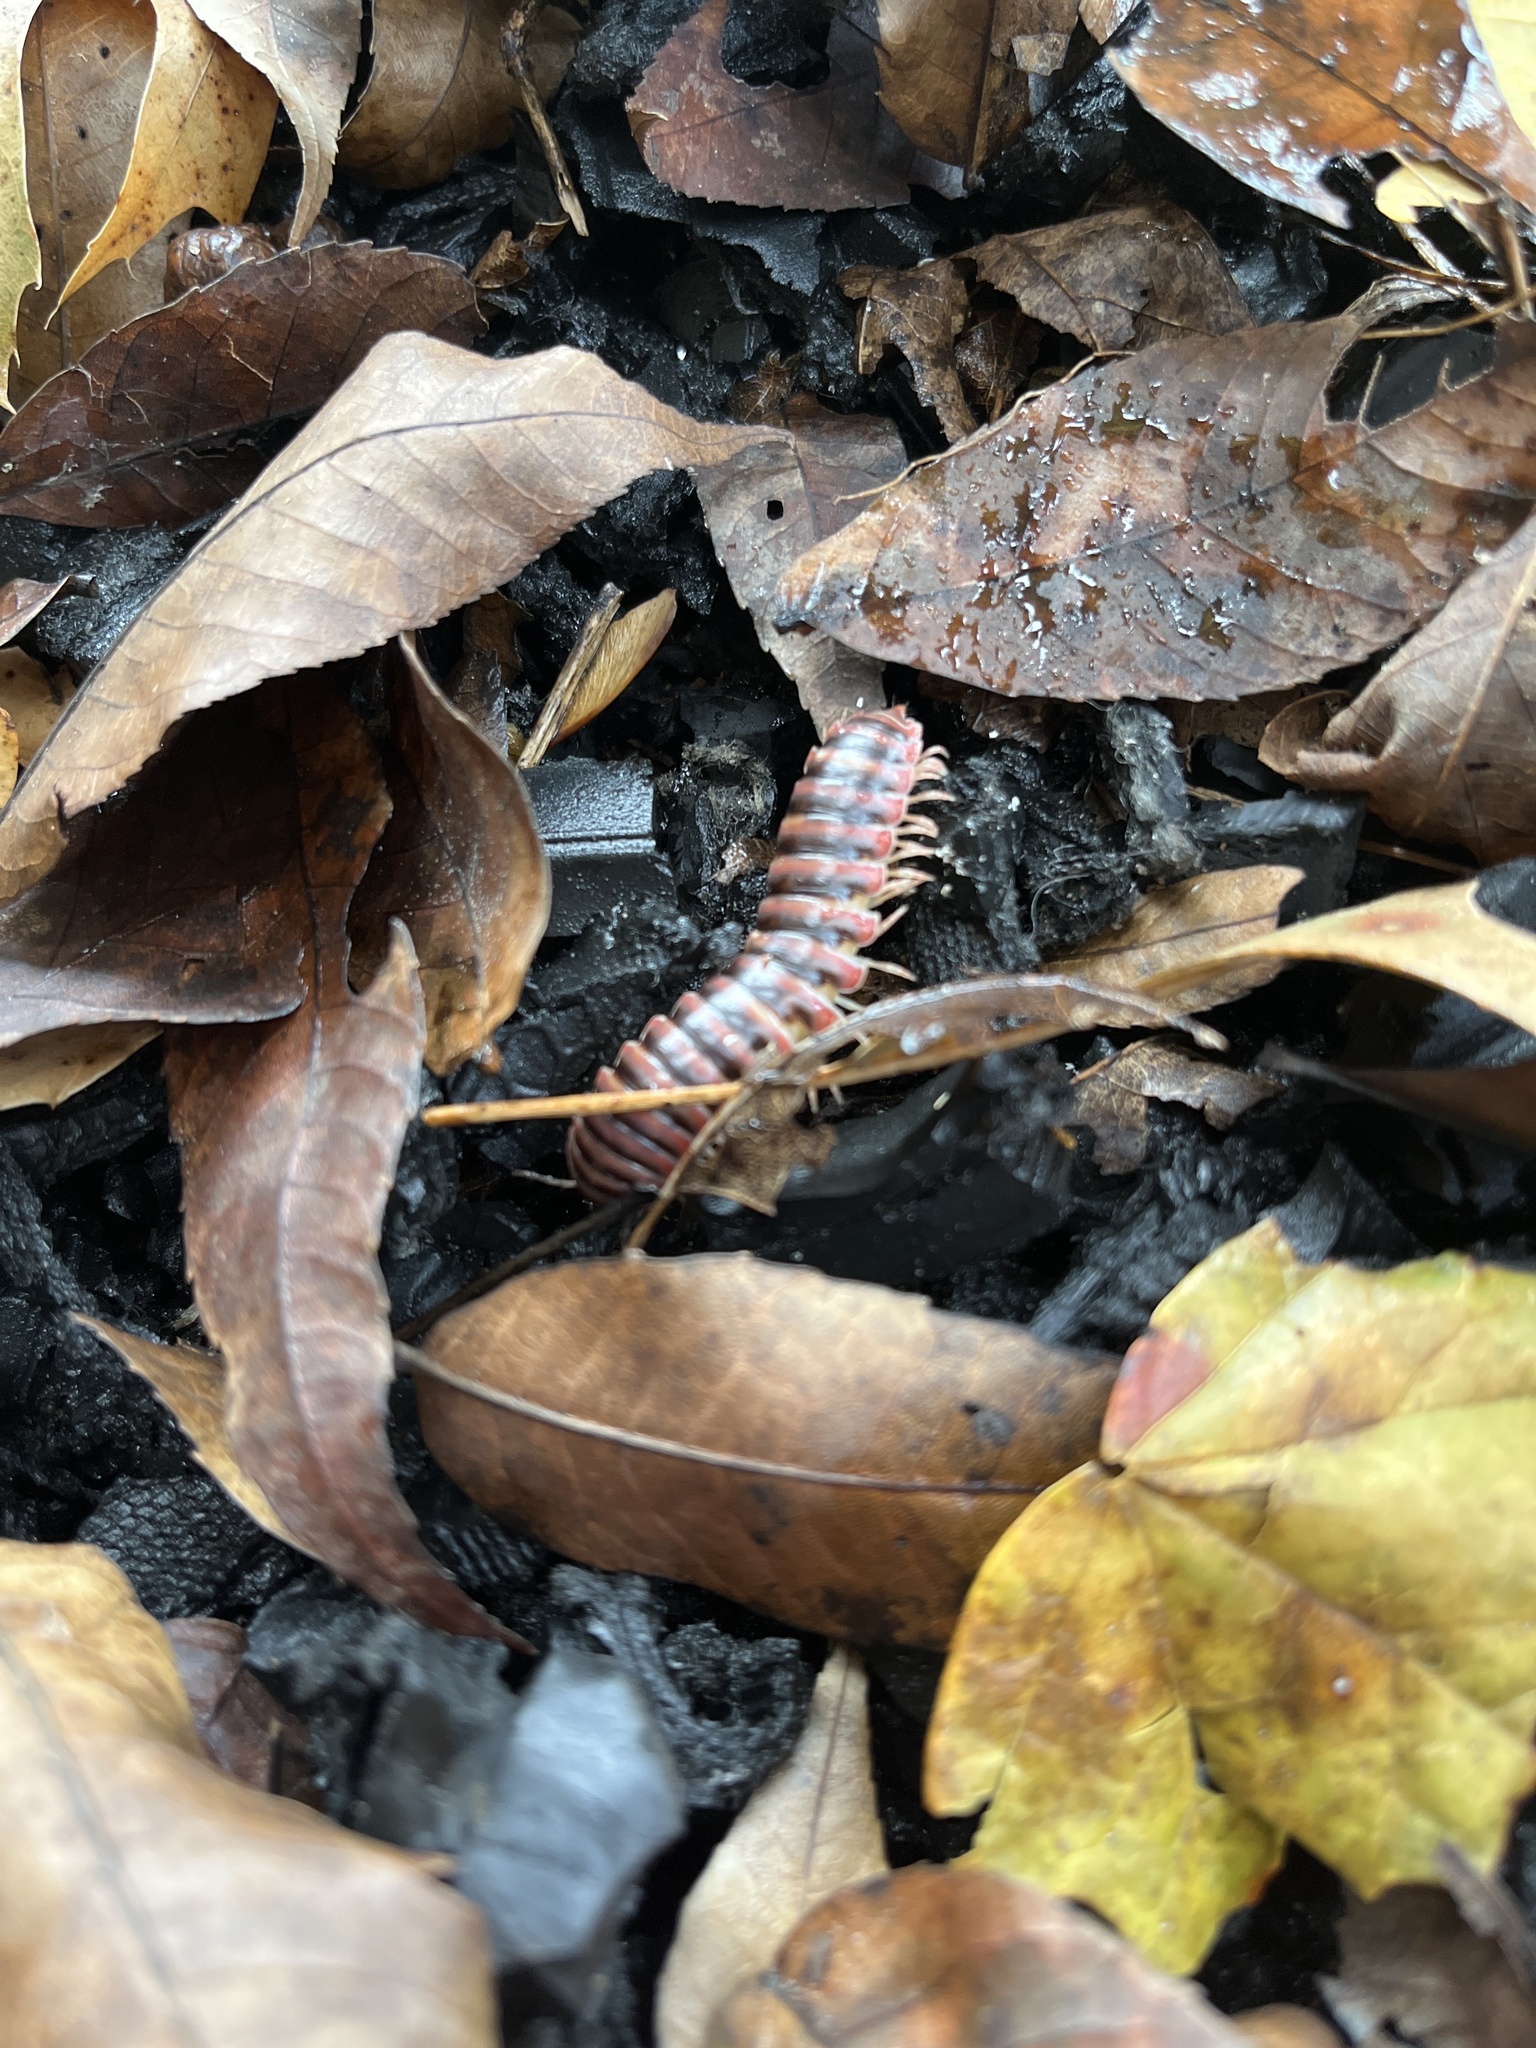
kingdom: Animalia
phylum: Arthropoda
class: Diplopoda
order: Polydesmida
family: Xystodesmidae
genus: Cherokia
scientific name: Cherokia georgiana
